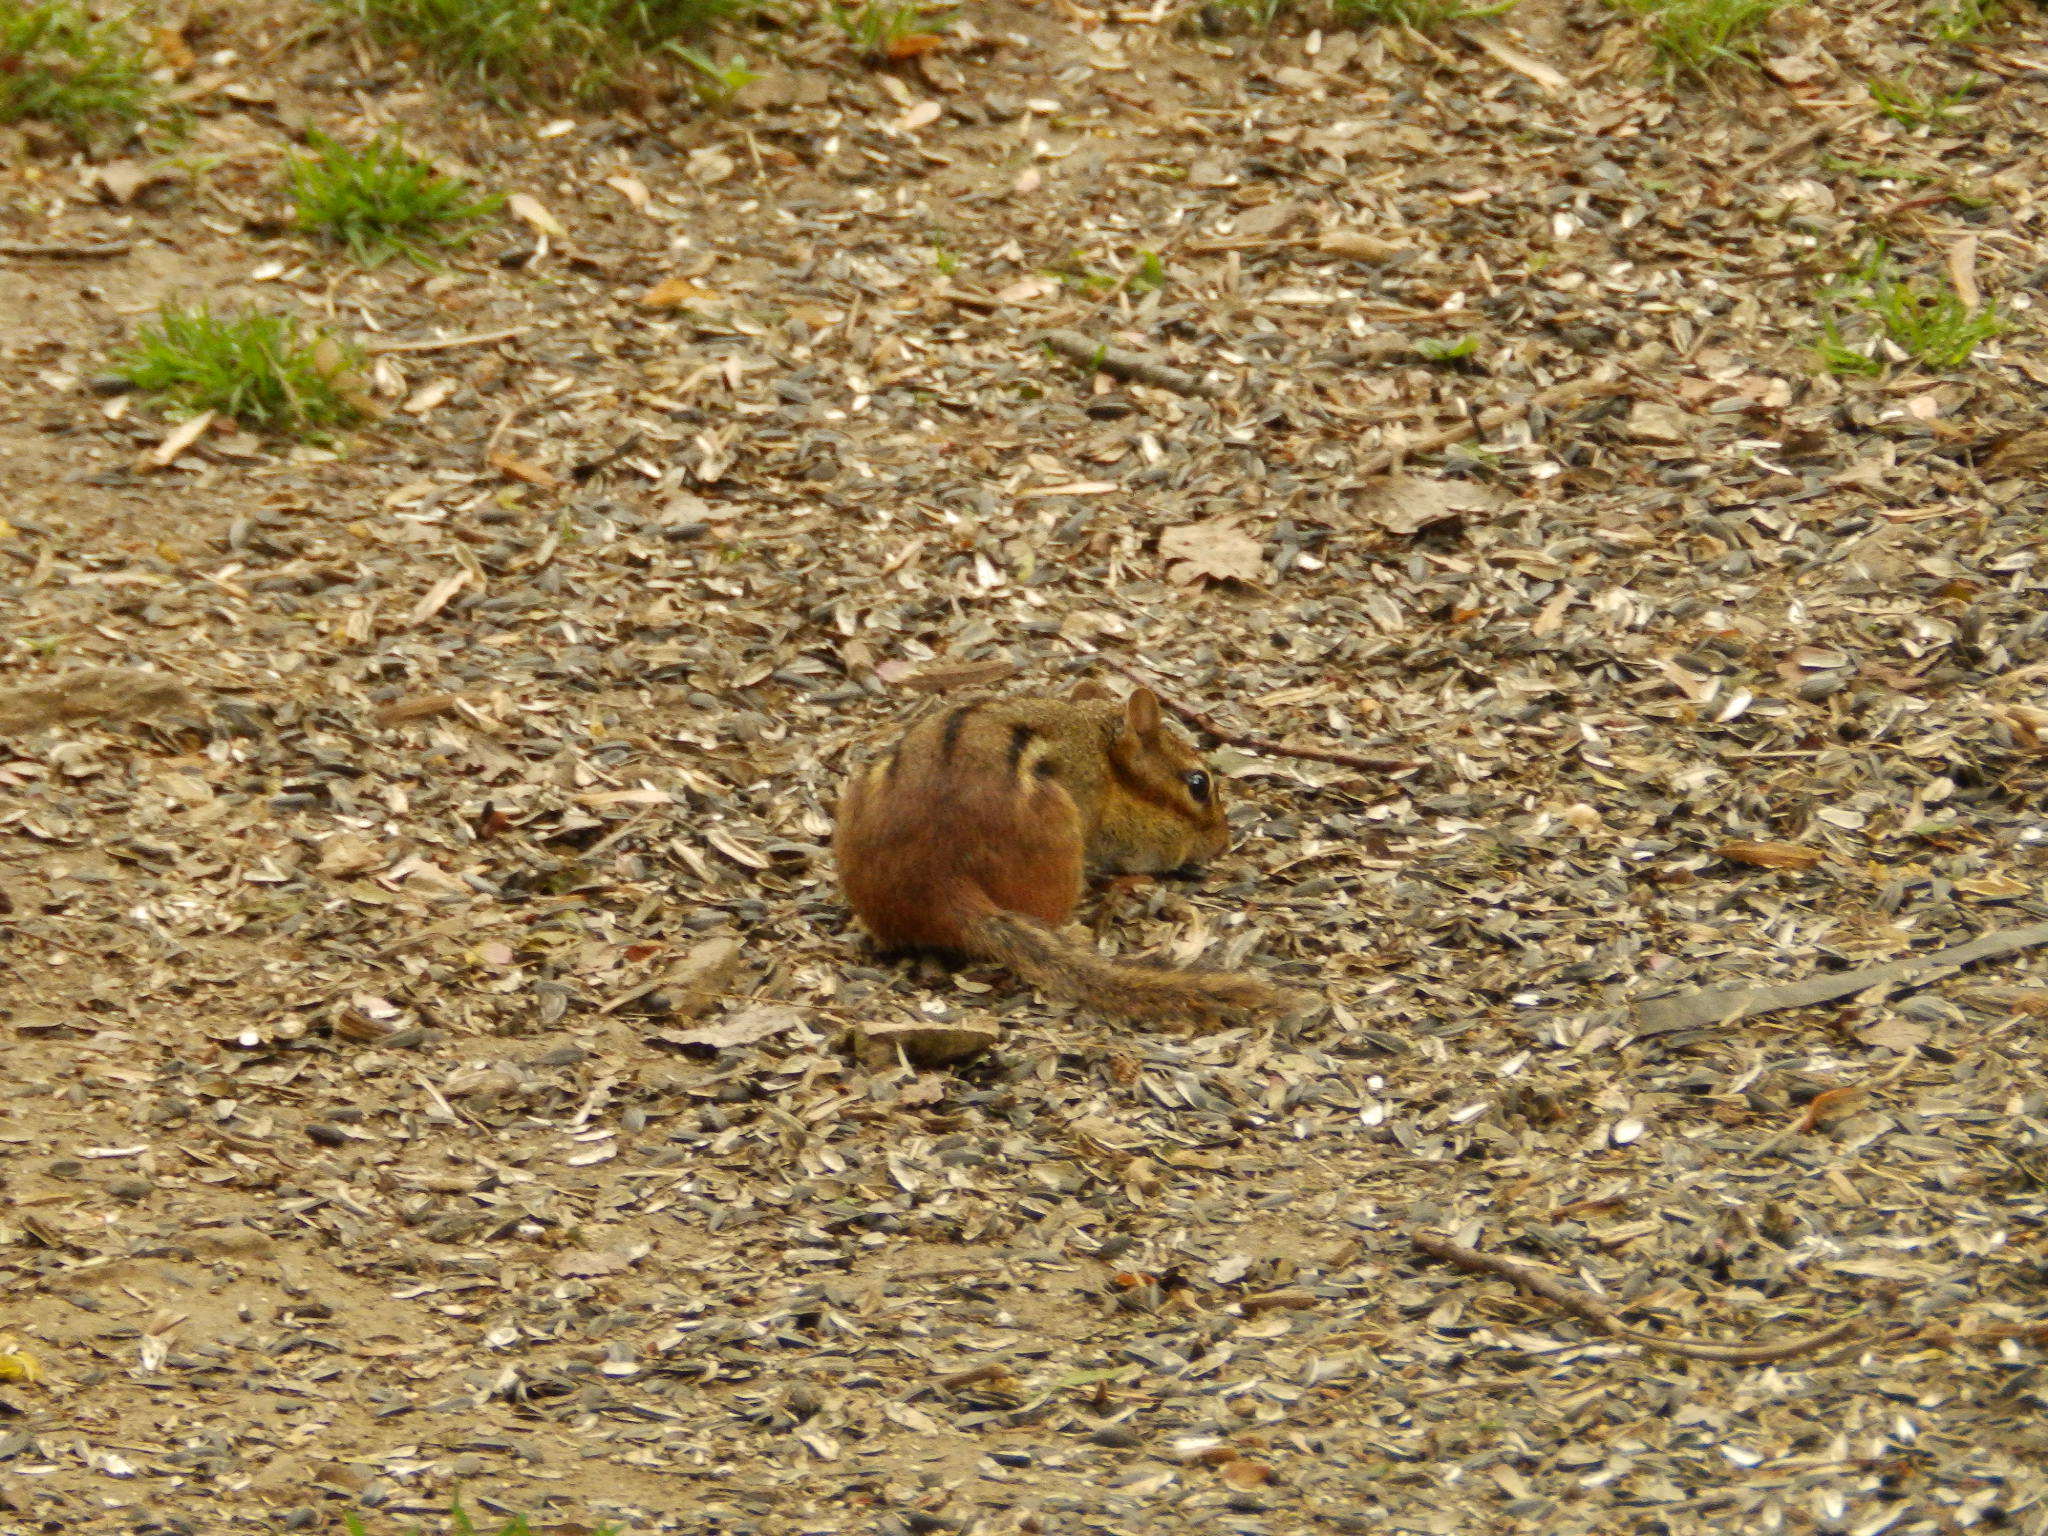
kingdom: Animalia
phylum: Chordata
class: Mammalia
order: Rodentia
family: Sciuridae
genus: Tamias
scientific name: Tamias striatus
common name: Eastern chipmunk
